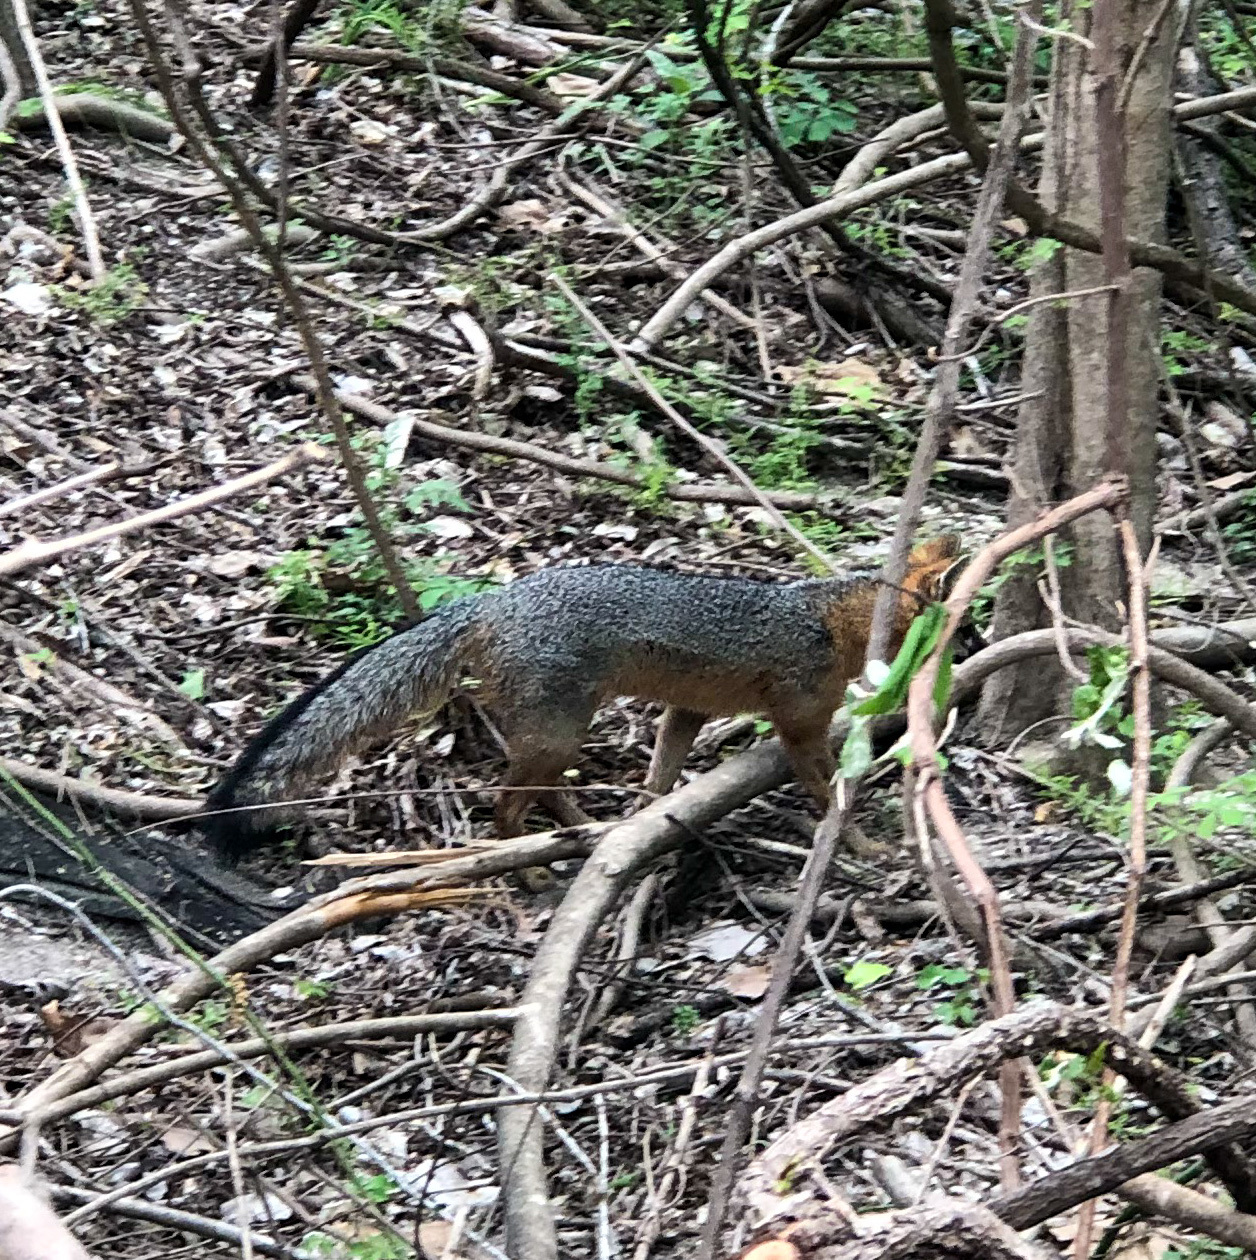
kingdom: Animalia
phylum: Chordata
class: Mammalia
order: Carnivora
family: Canidae
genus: Urocyon
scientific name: Urocyon cinereoargenteus
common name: Gray fox
